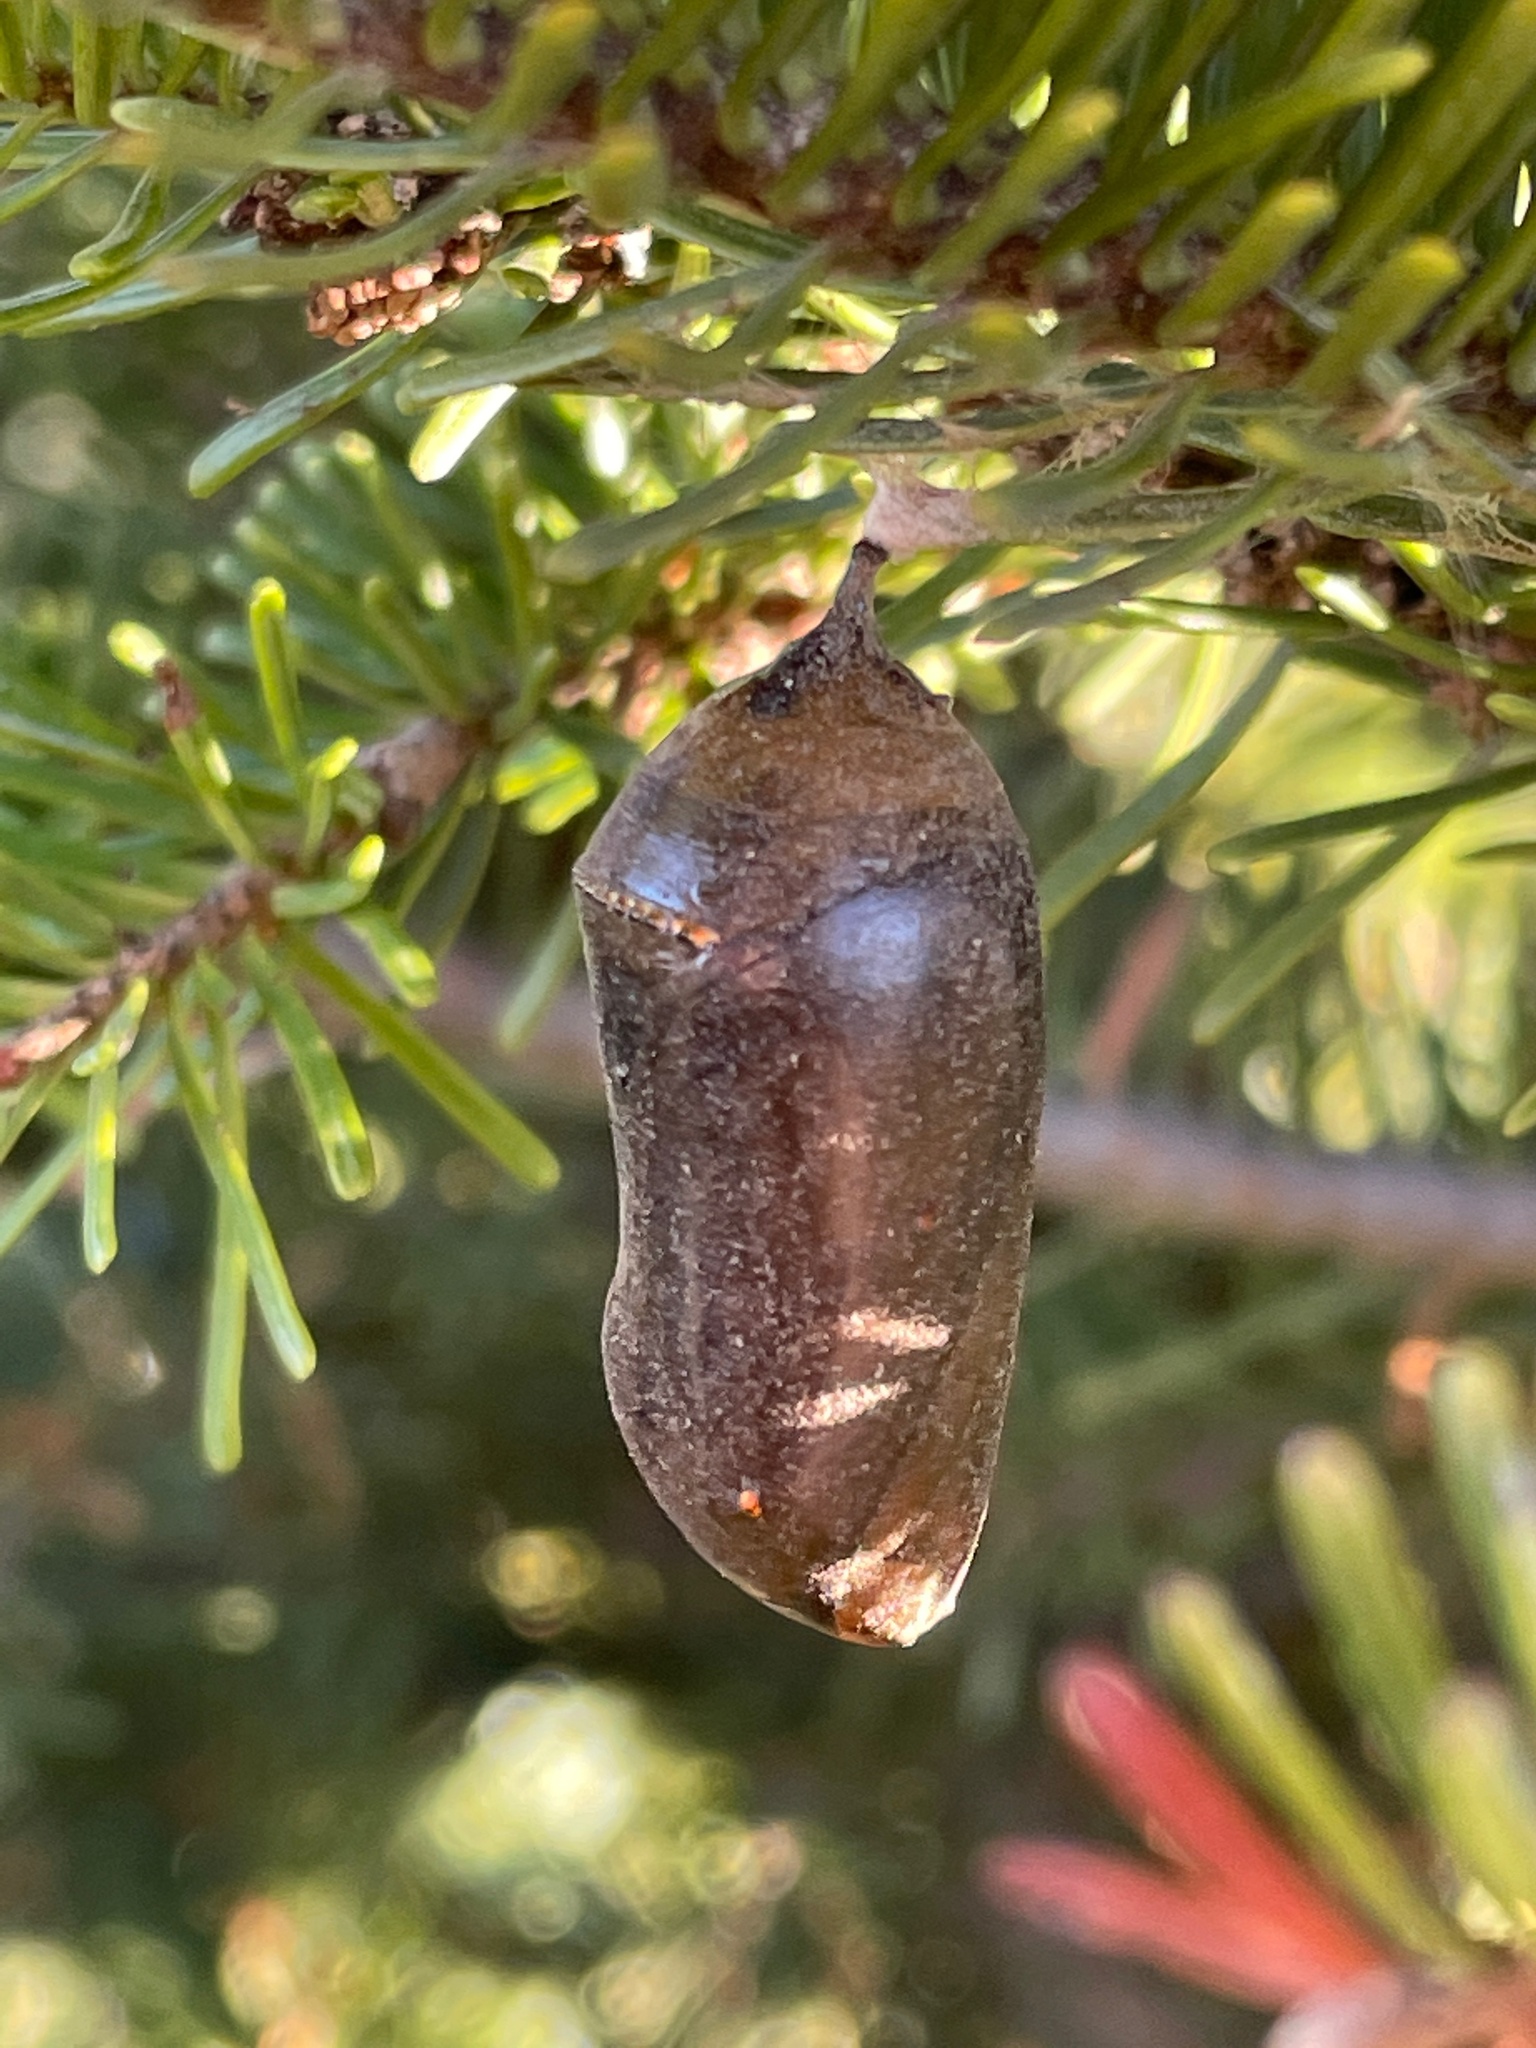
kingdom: Animalia
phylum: Arthropoda
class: Insecta
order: Lepidoptera
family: Nymphalidae
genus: Danaus
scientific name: Danaus plexippus
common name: Monarch
